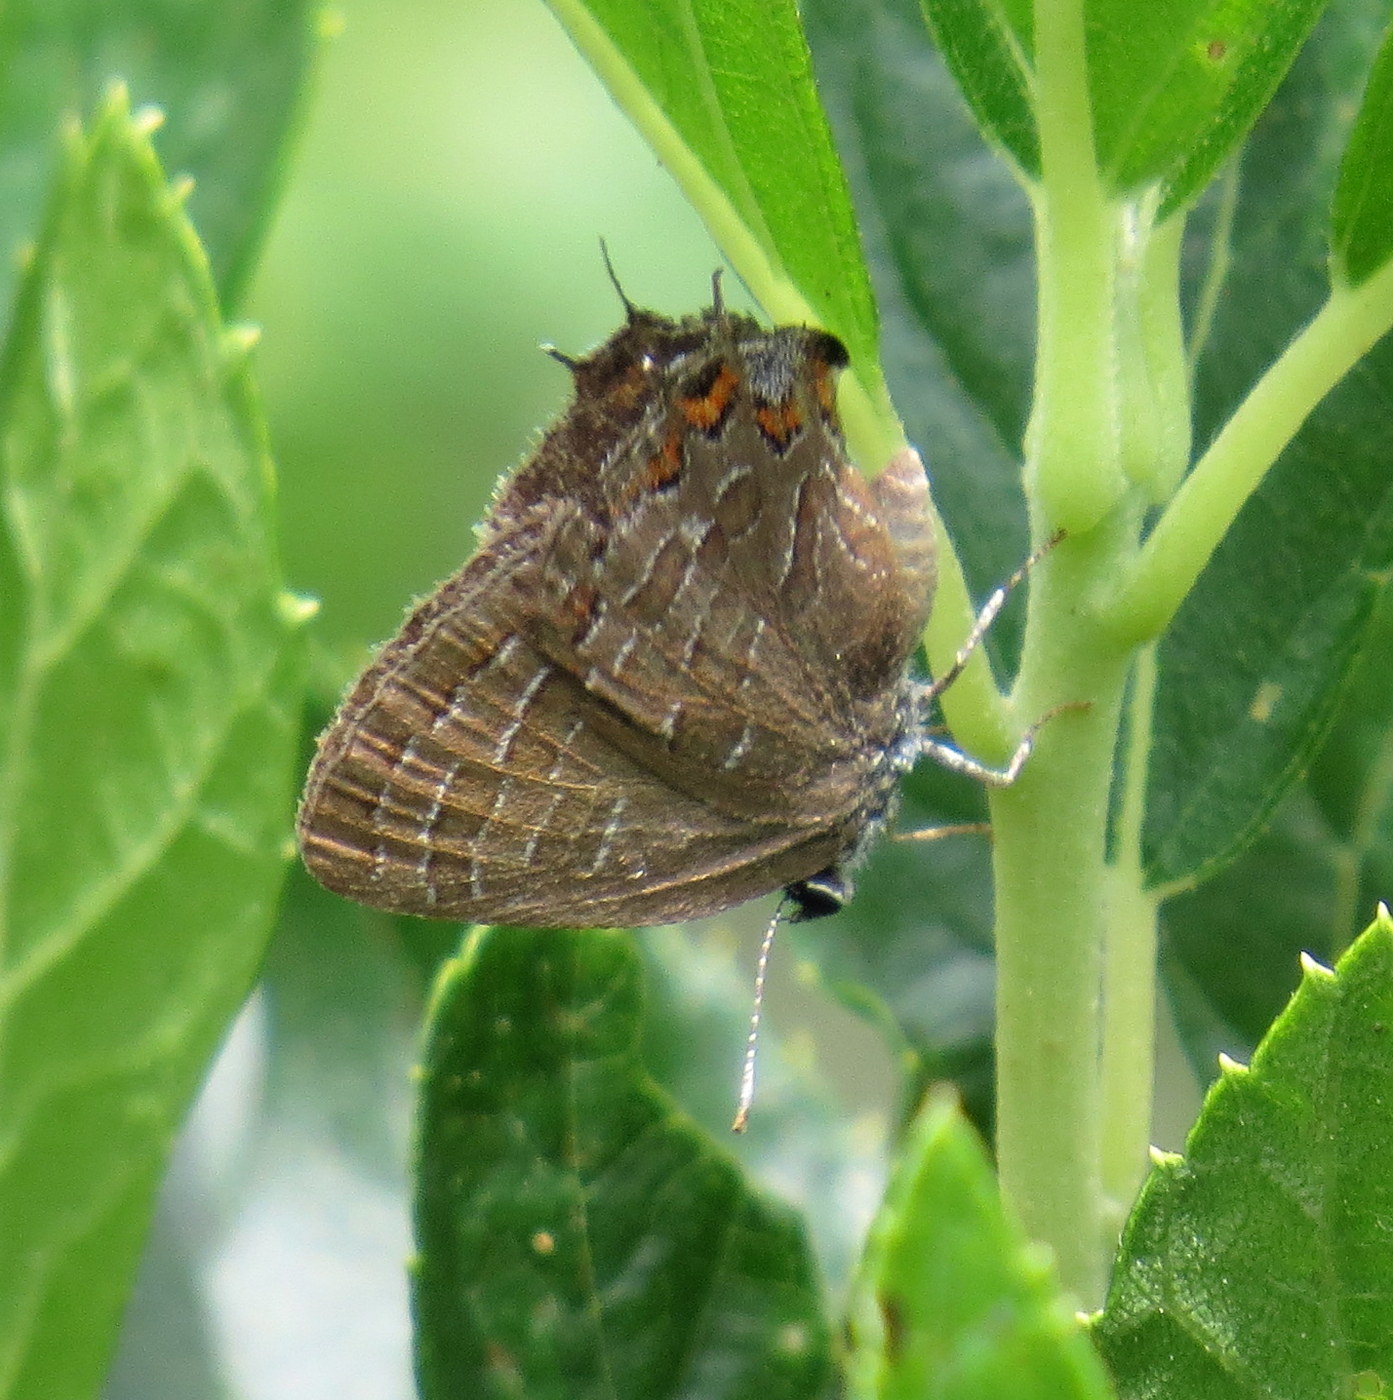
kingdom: Animalia
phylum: Arthropoda
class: Insecta
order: Lepidoptera
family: Lycaenidae
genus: Satyrium
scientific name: Satyrium liparops
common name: Striped hairstreak
